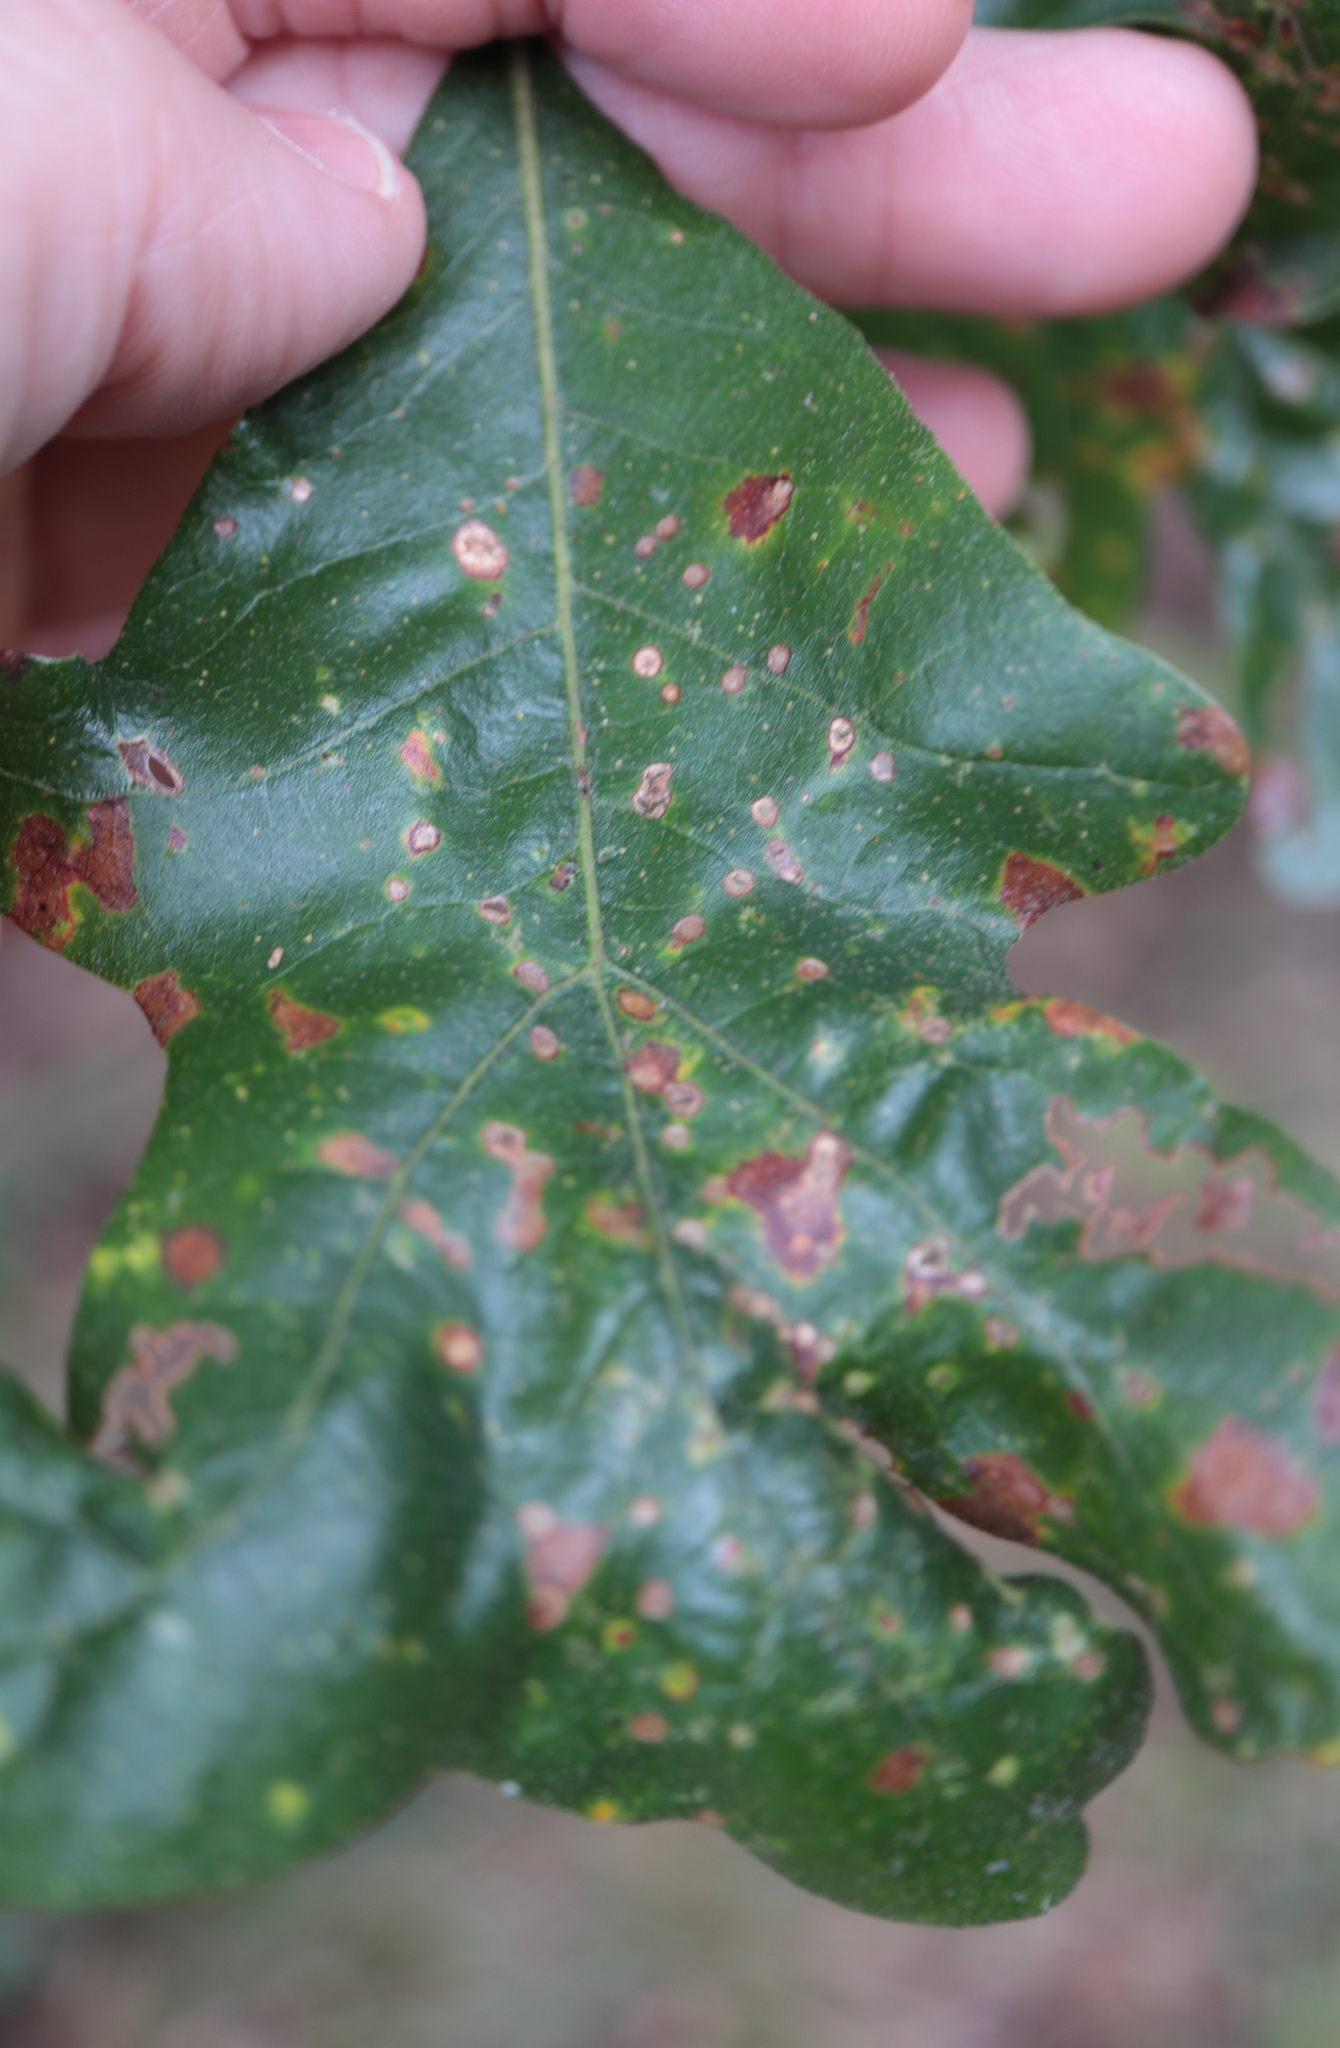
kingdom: Animalia
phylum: Arthropoda
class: Insecta
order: Hymenoptera
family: Cynipidae
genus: Neuroterus
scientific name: Neuroterus saltarius
